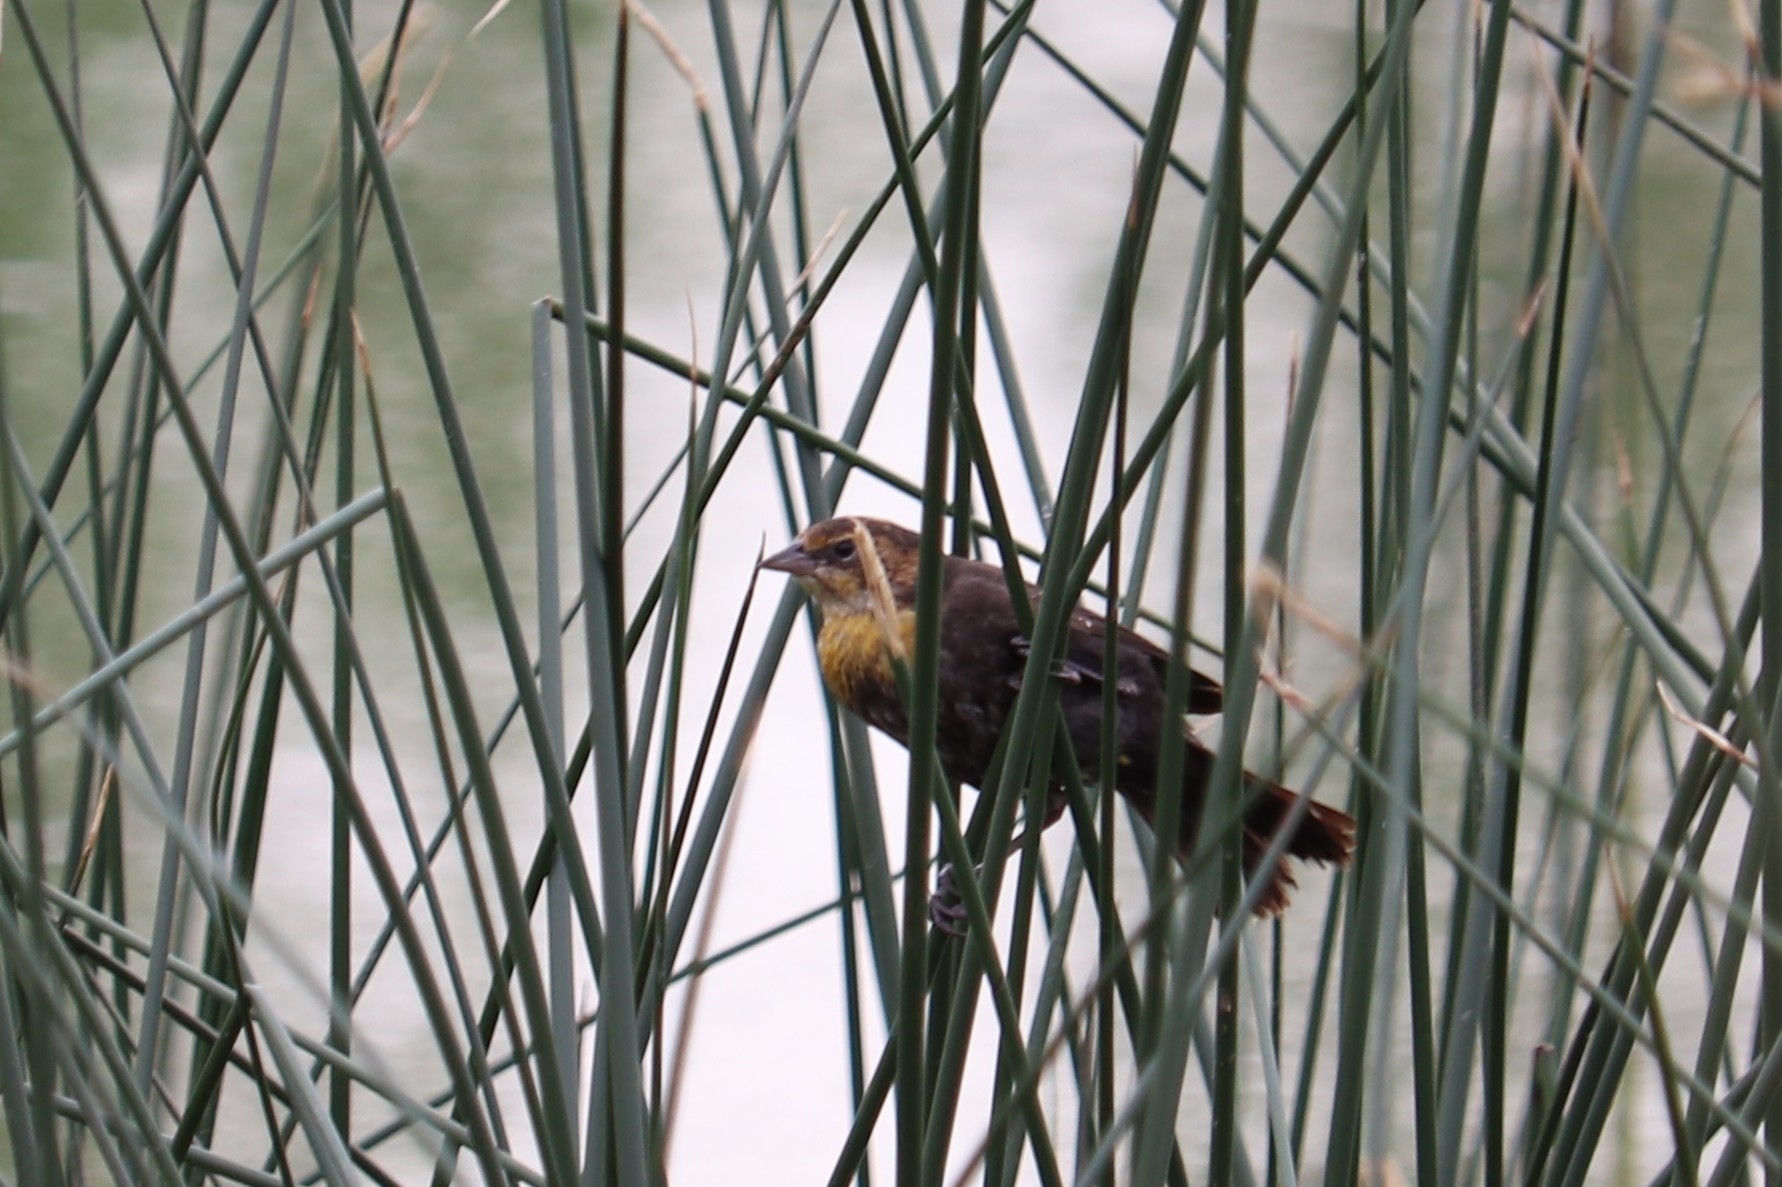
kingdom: Animalia
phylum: Chordata
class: Aves
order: Passeriformes
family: Icteridae
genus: Xanthocephalus
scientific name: Xanthocephalus xanthocephalus
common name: Yellow-headed blackbird
